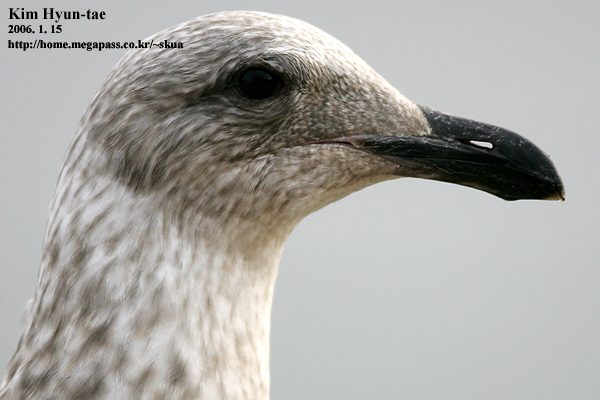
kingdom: Animalia
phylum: Chordata
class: Aves
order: Charadriiformes
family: Laridae
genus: Larus
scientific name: Larus schistisagus
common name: Slaty-backed gull
